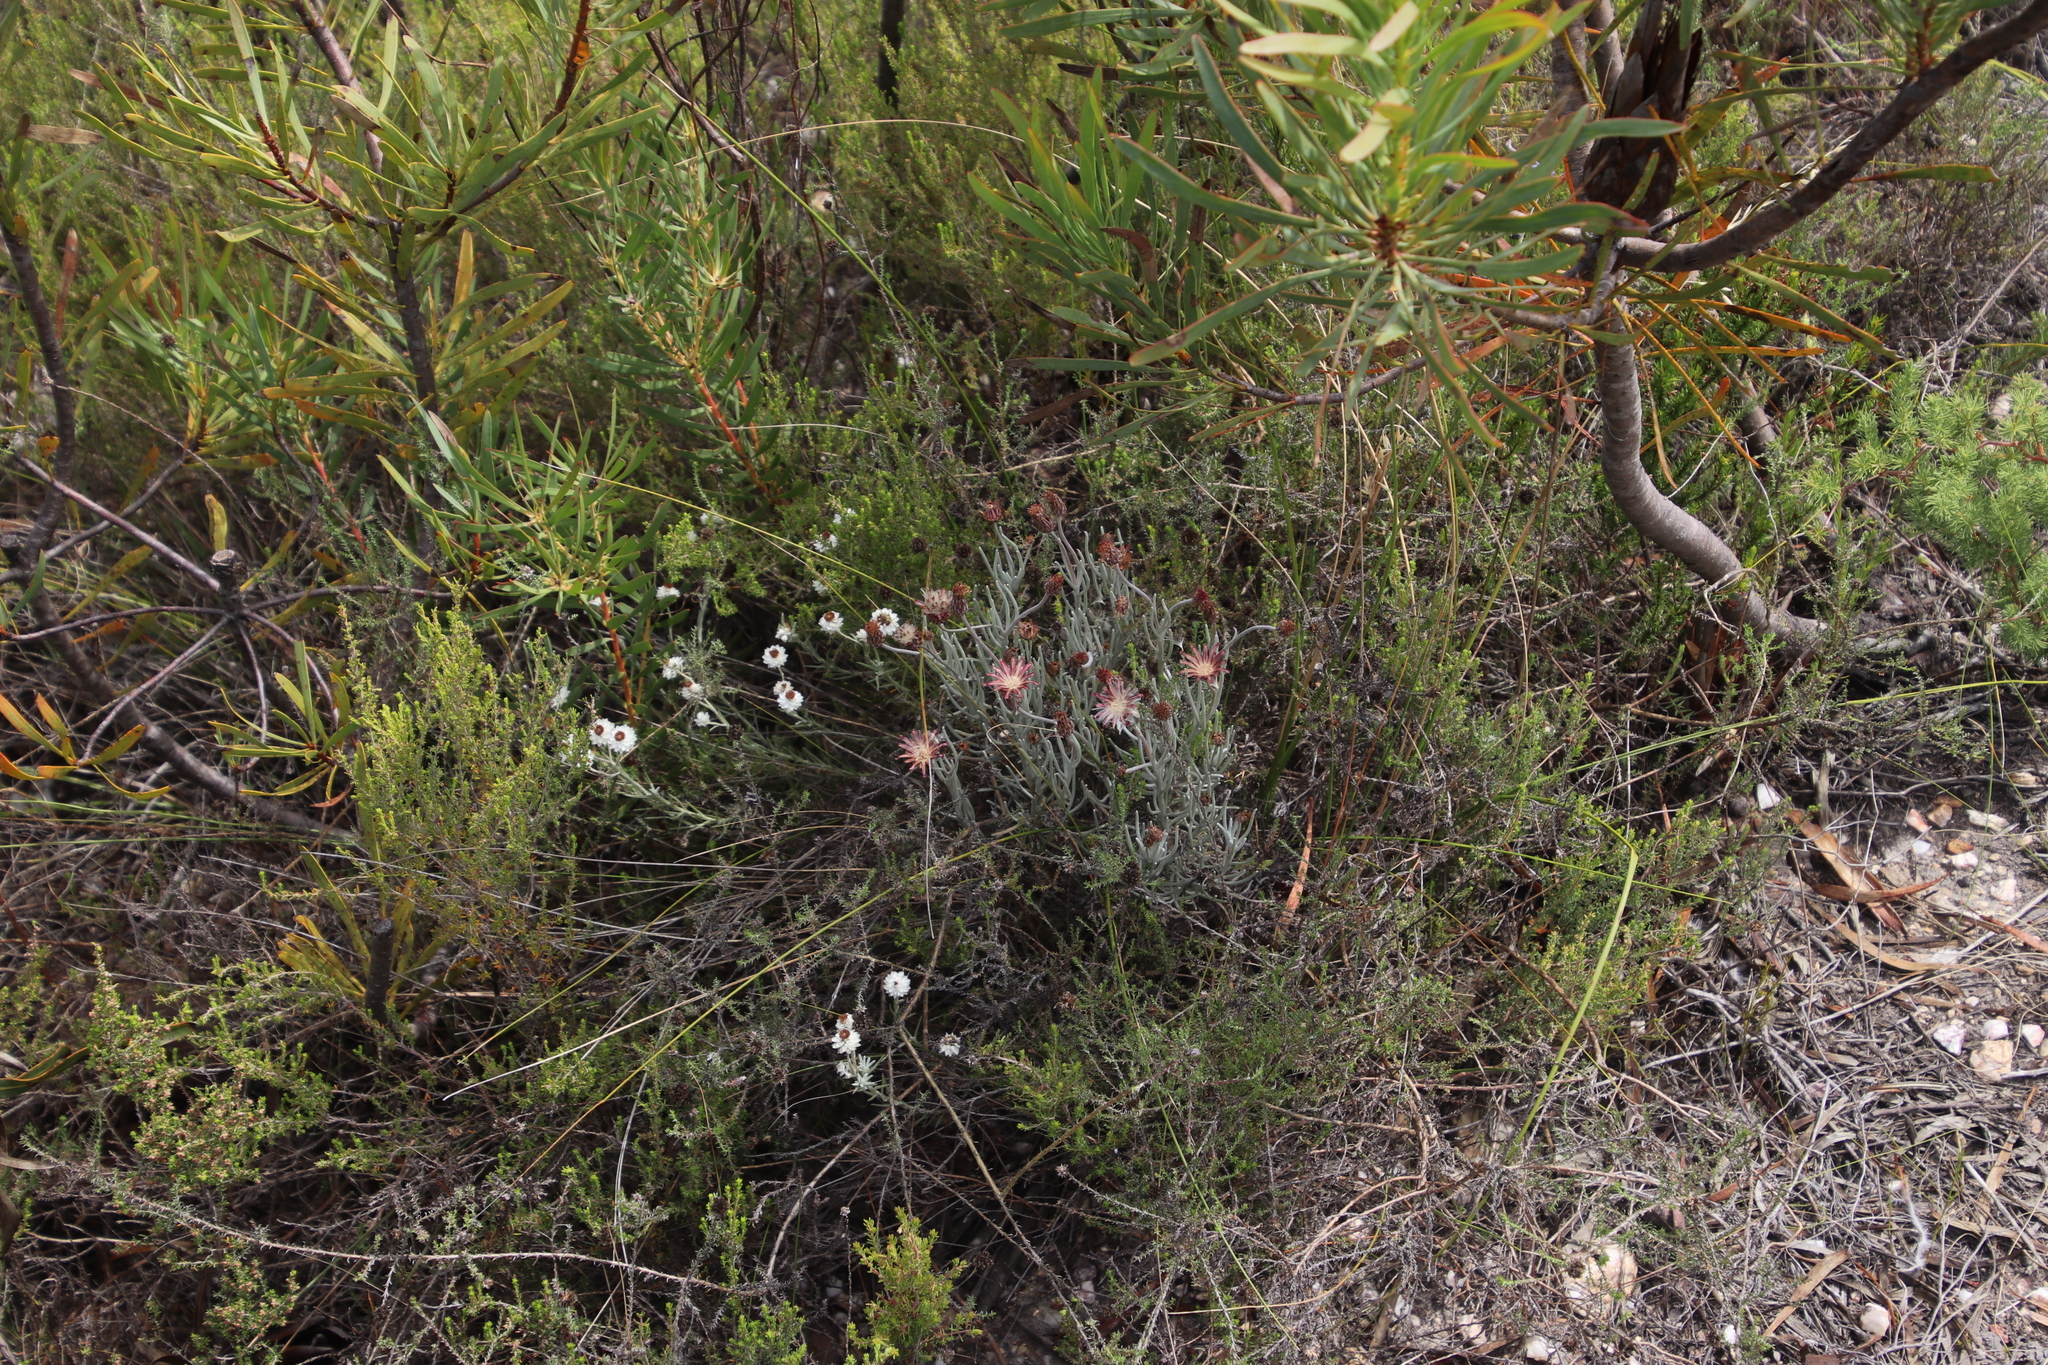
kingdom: Plantae
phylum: Tracheophyta
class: Magnoliopsida
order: Asterales
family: Asteraceae
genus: Syncarpha
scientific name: Syncarpha gnaphaloides
